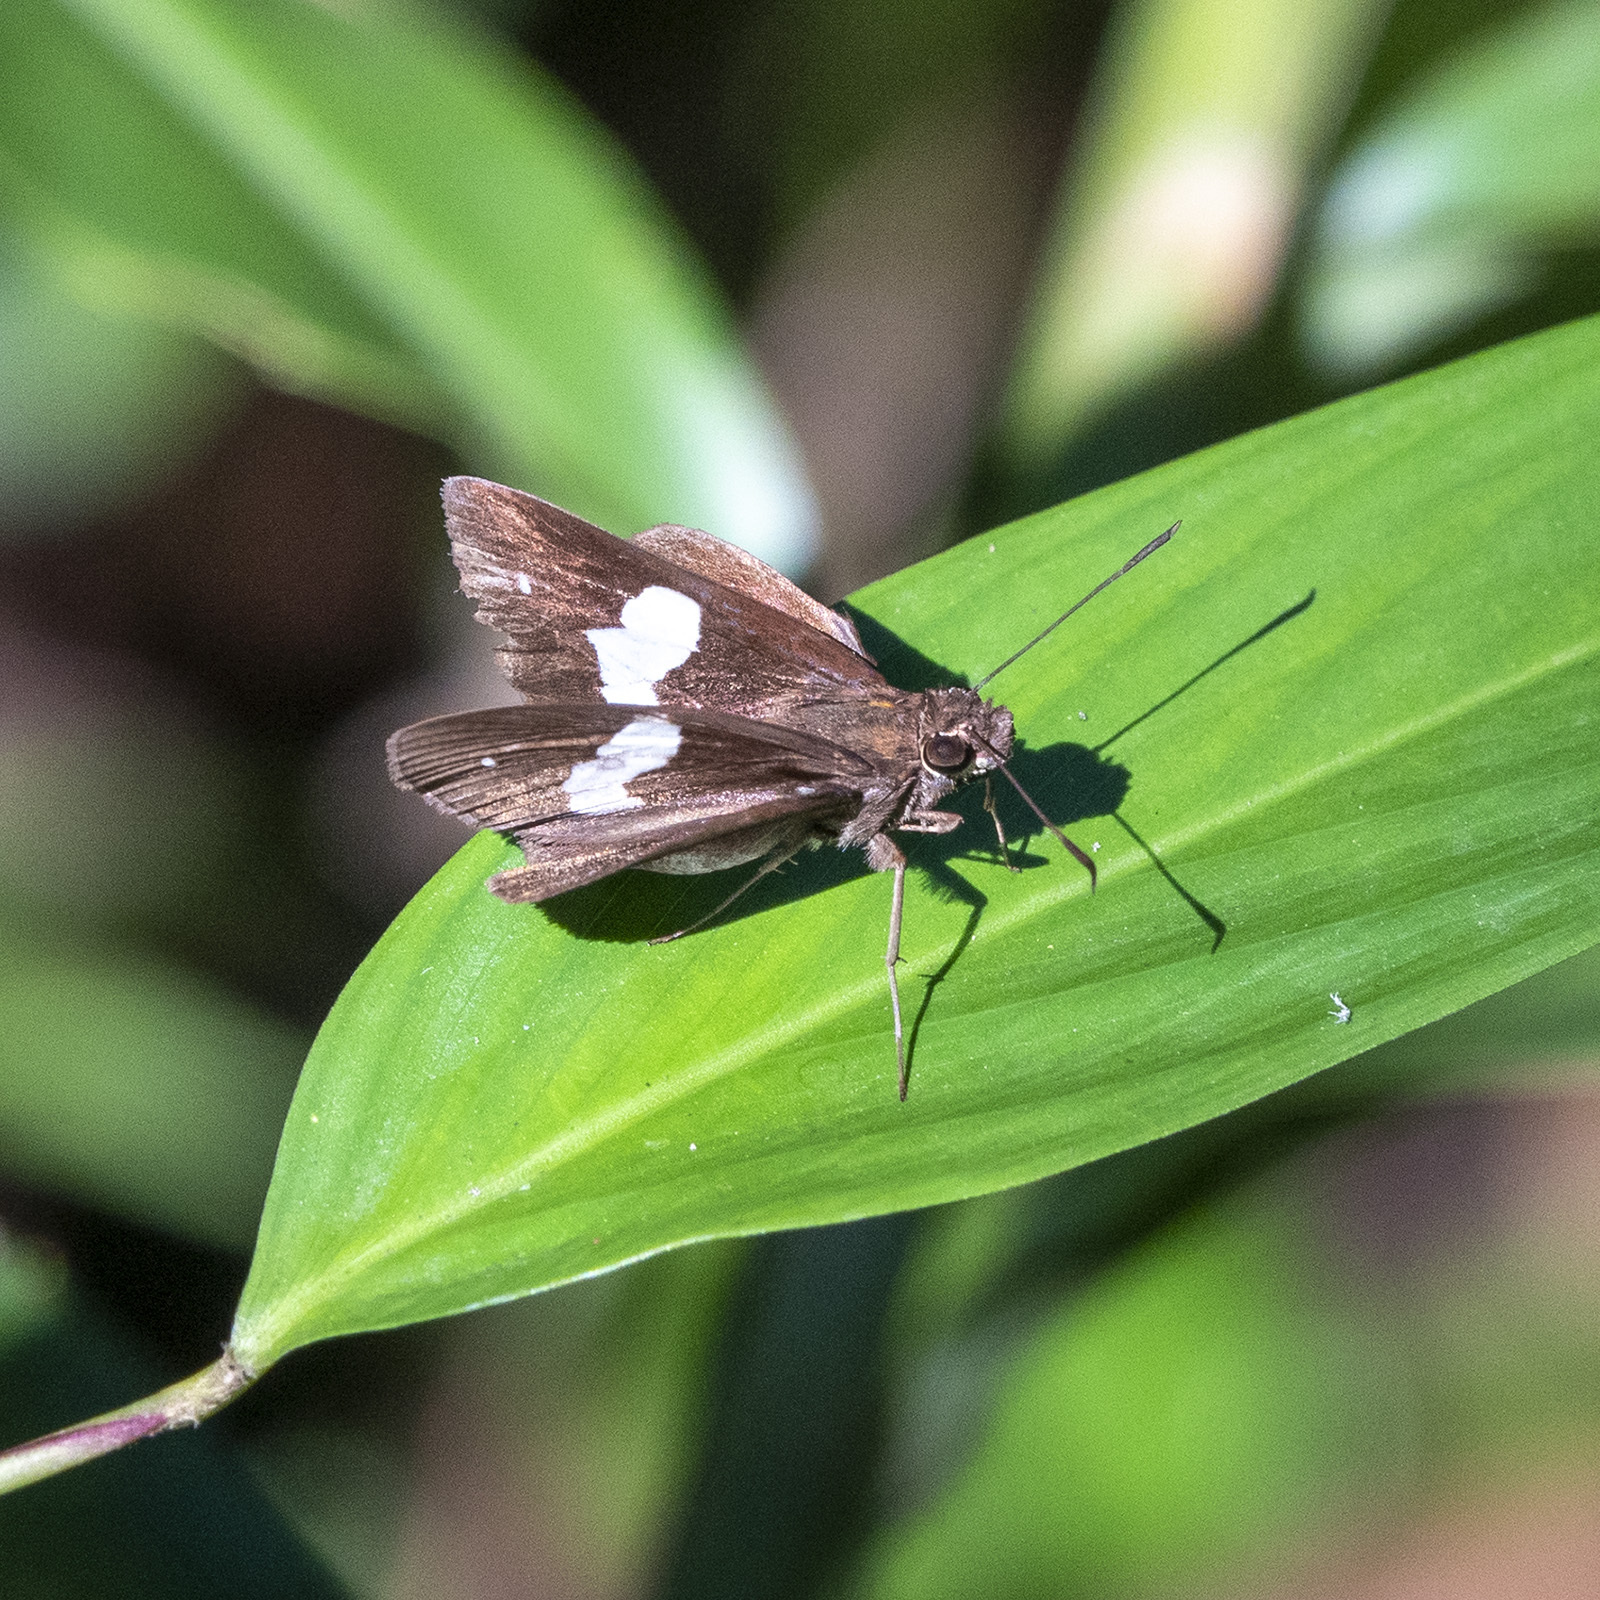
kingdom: Animalia
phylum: Arthropoda
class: Insecta
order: Lepidoptera
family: Hesperiidae
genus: Notocrypta
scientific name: Notocrypta paralysos
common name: Common banded demon
